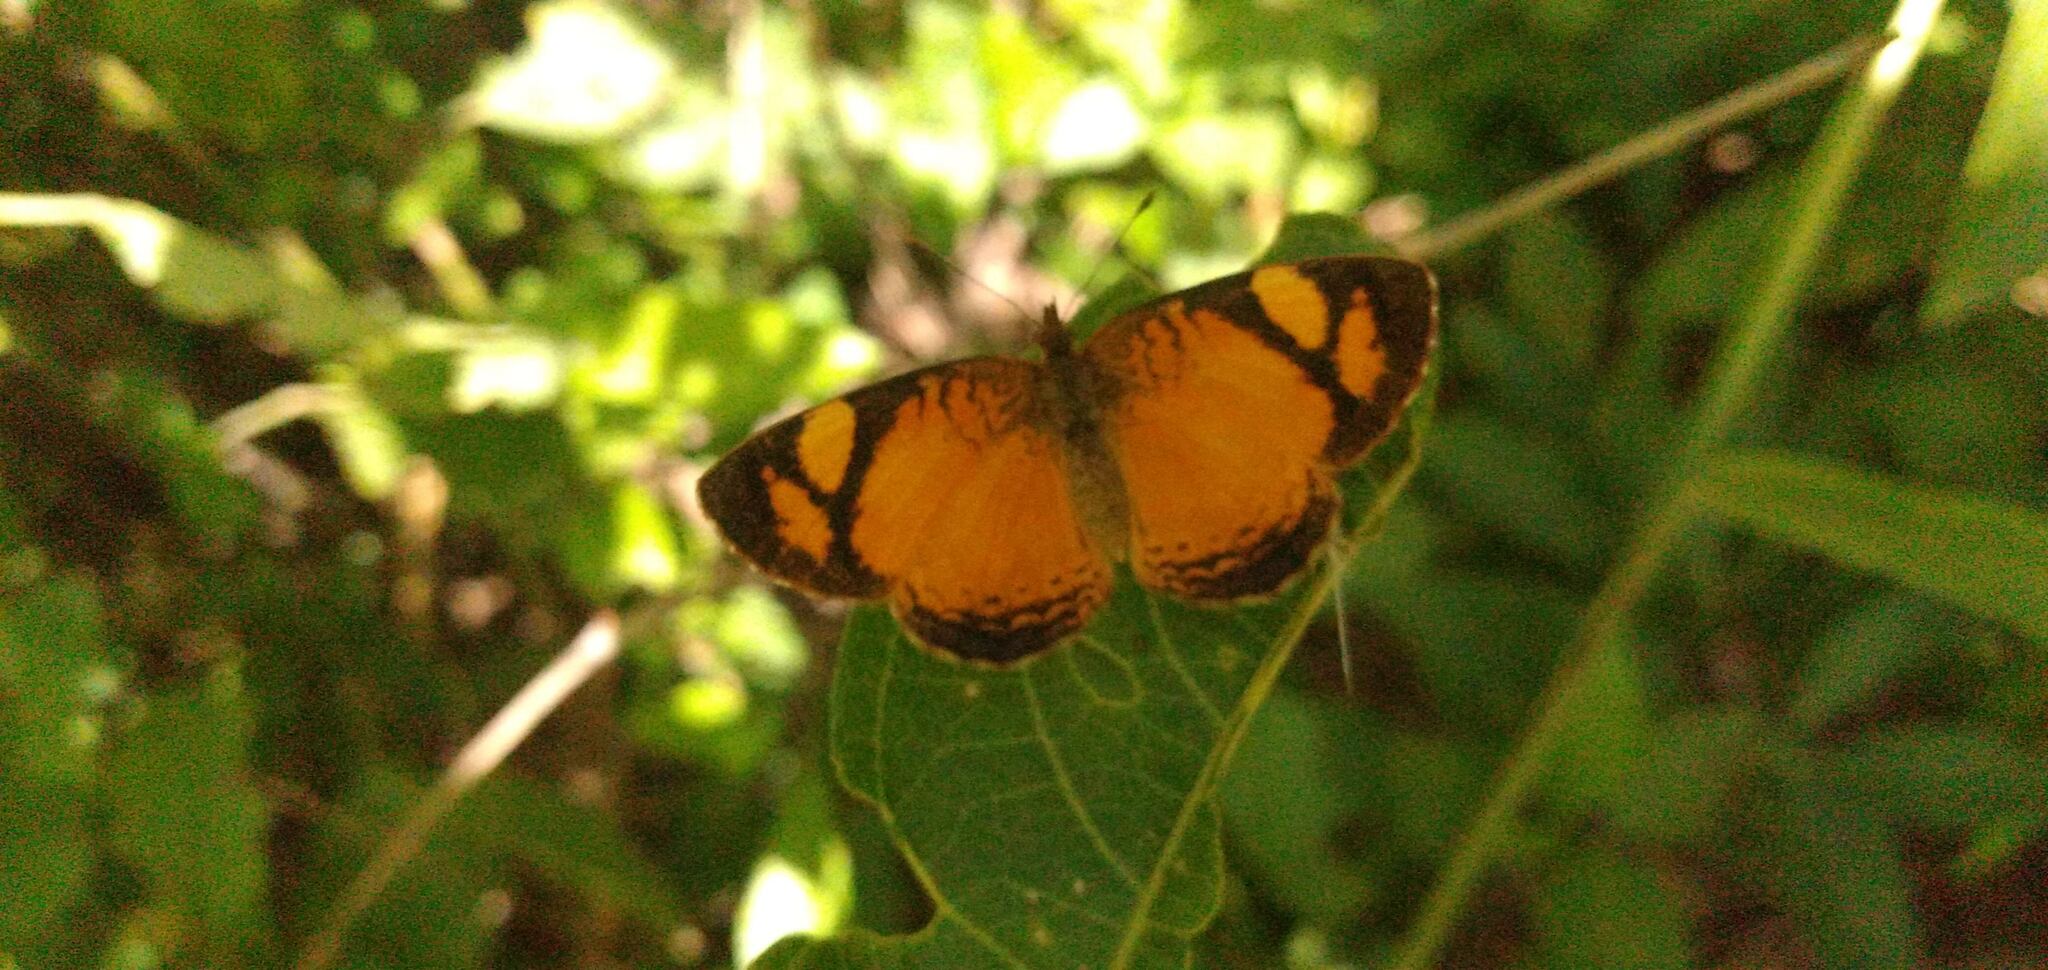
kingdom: Animalia
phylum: Arthropoda
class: Insecta
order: Lepidoptera
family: Nymphalidae
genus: Tegosa
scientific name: Tegosa claudina
